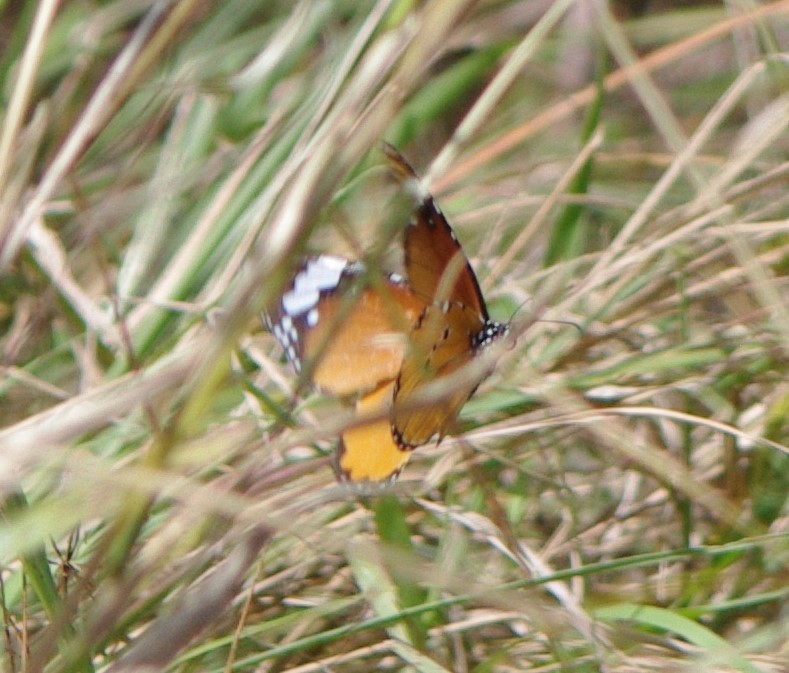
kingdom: Animalia
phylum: Arthropoda
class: Insecta
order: Lepidoptera
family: Nymphalidae
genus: Danaus
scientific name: Danaus chrysippus
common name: Plain tiger
